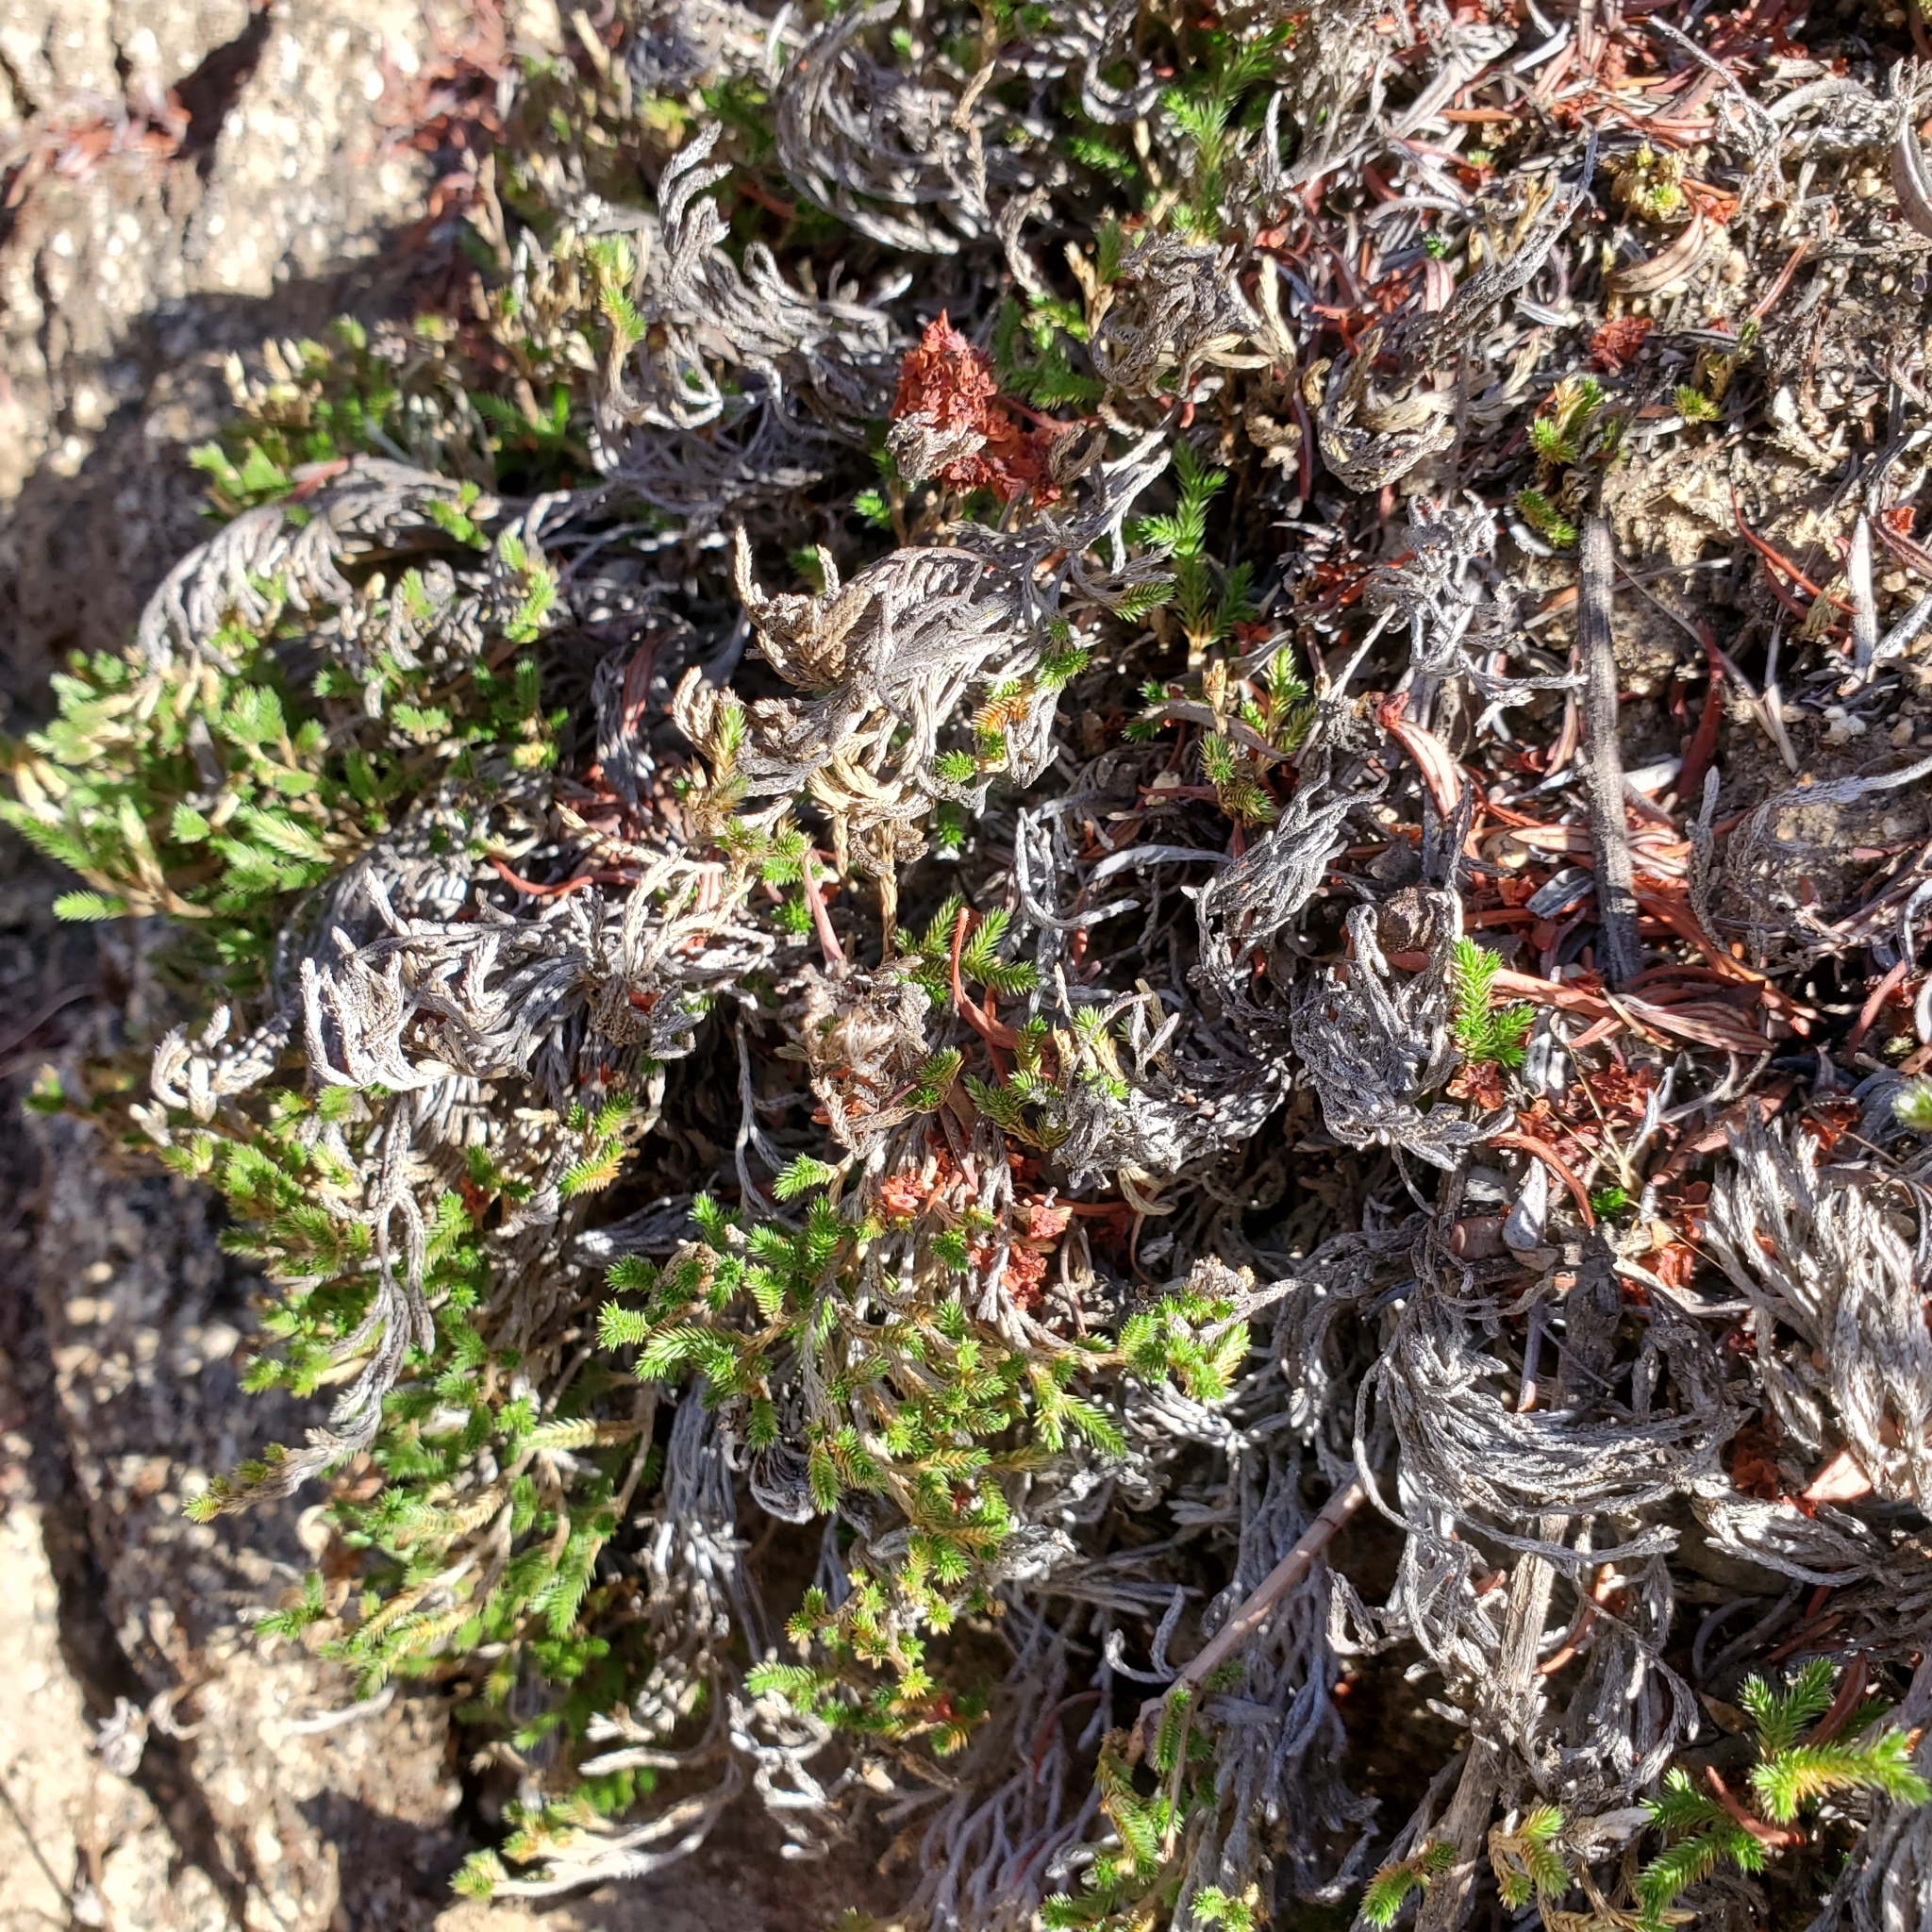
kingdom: Plantae
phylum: Tracheophyta
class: Lycopodiopsida
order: Selaginellales
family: Selaginellaceae
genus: Selaginella
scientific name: Selaginella bigelovii
